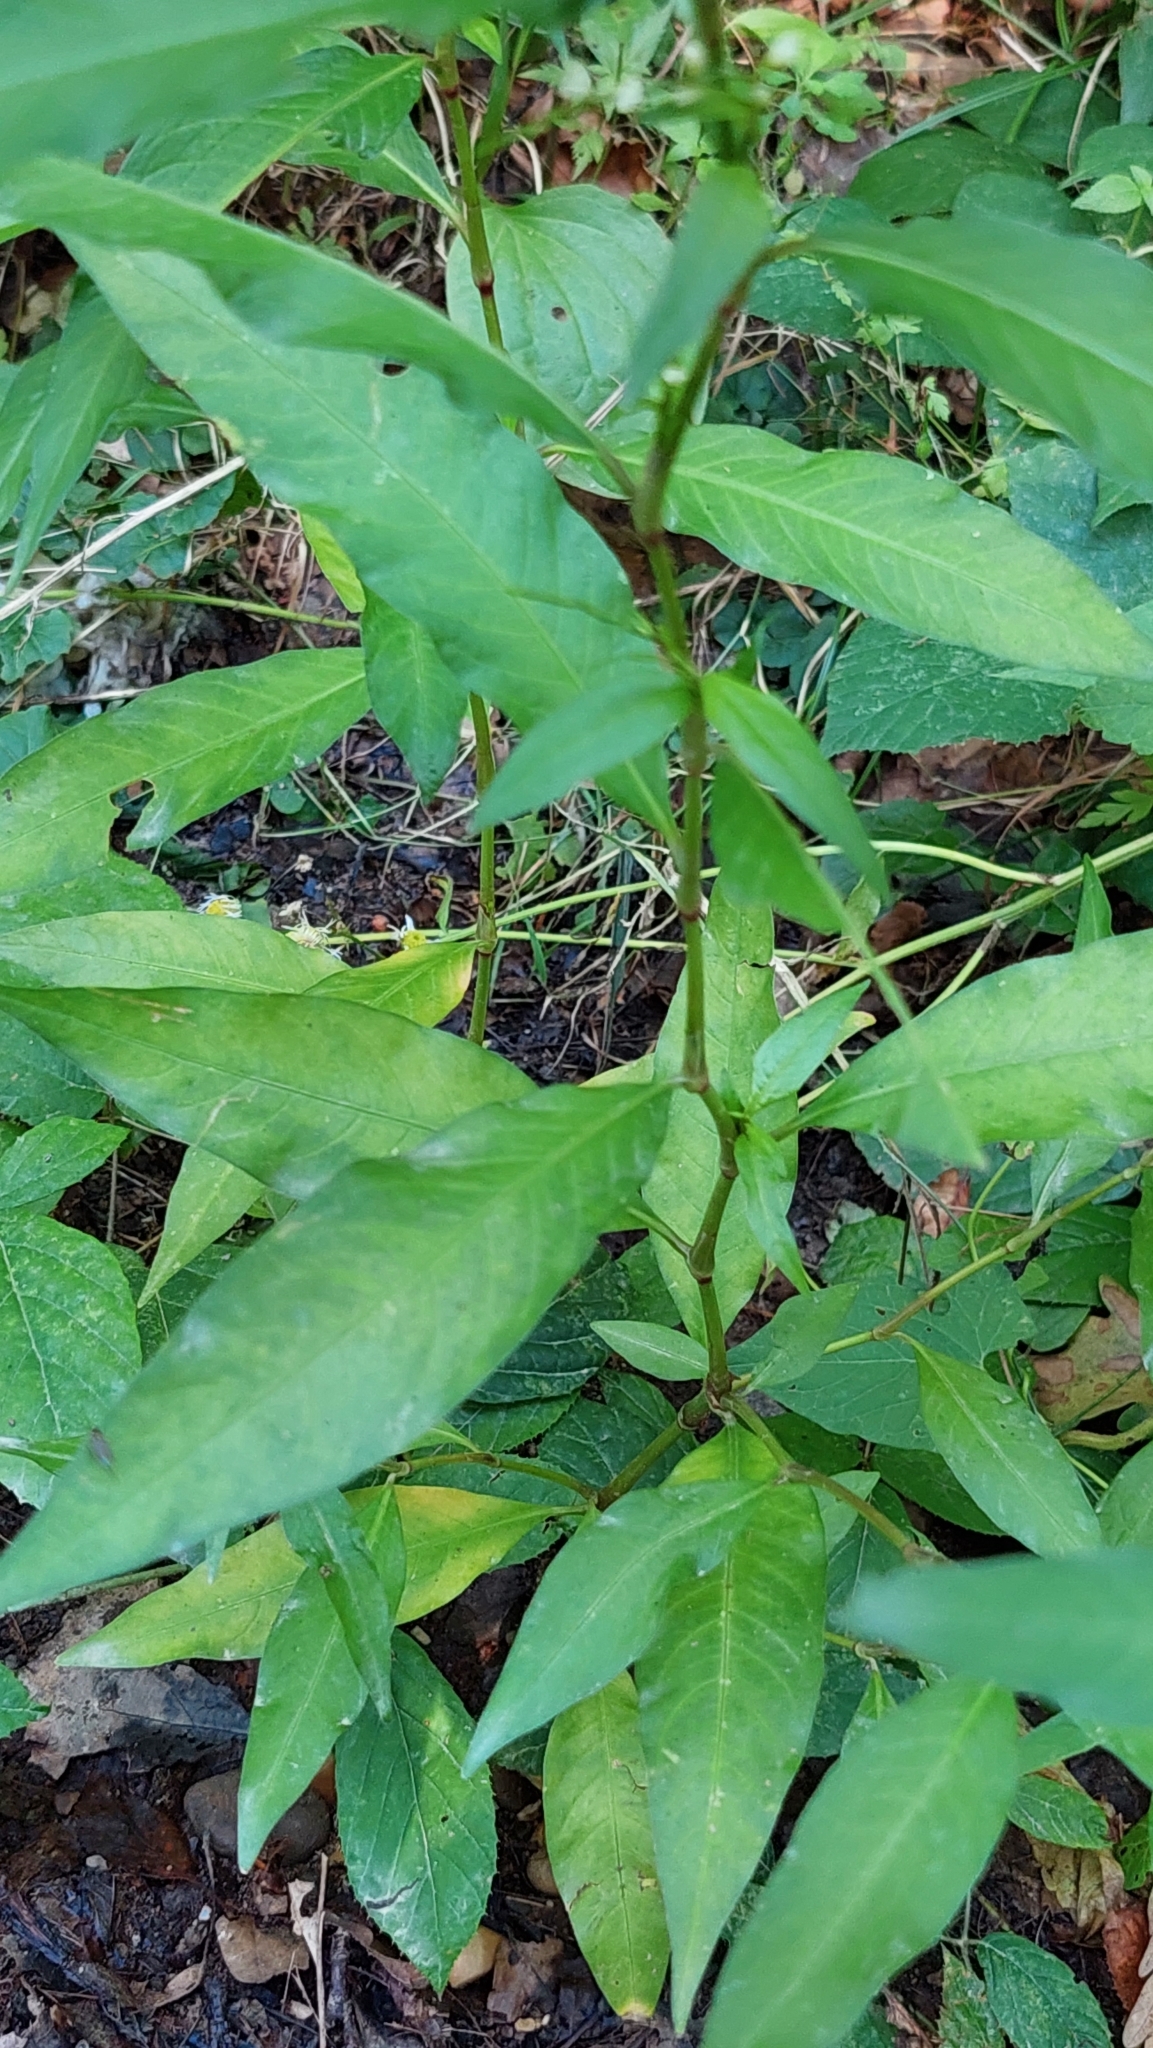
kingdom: Plantae
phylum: Tracheophyta
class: Magnoliopsida
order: Caryophyllales
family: Polygonaceae
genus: Persicaria
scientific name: Persicaria hydropiper
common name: Water-pepper
